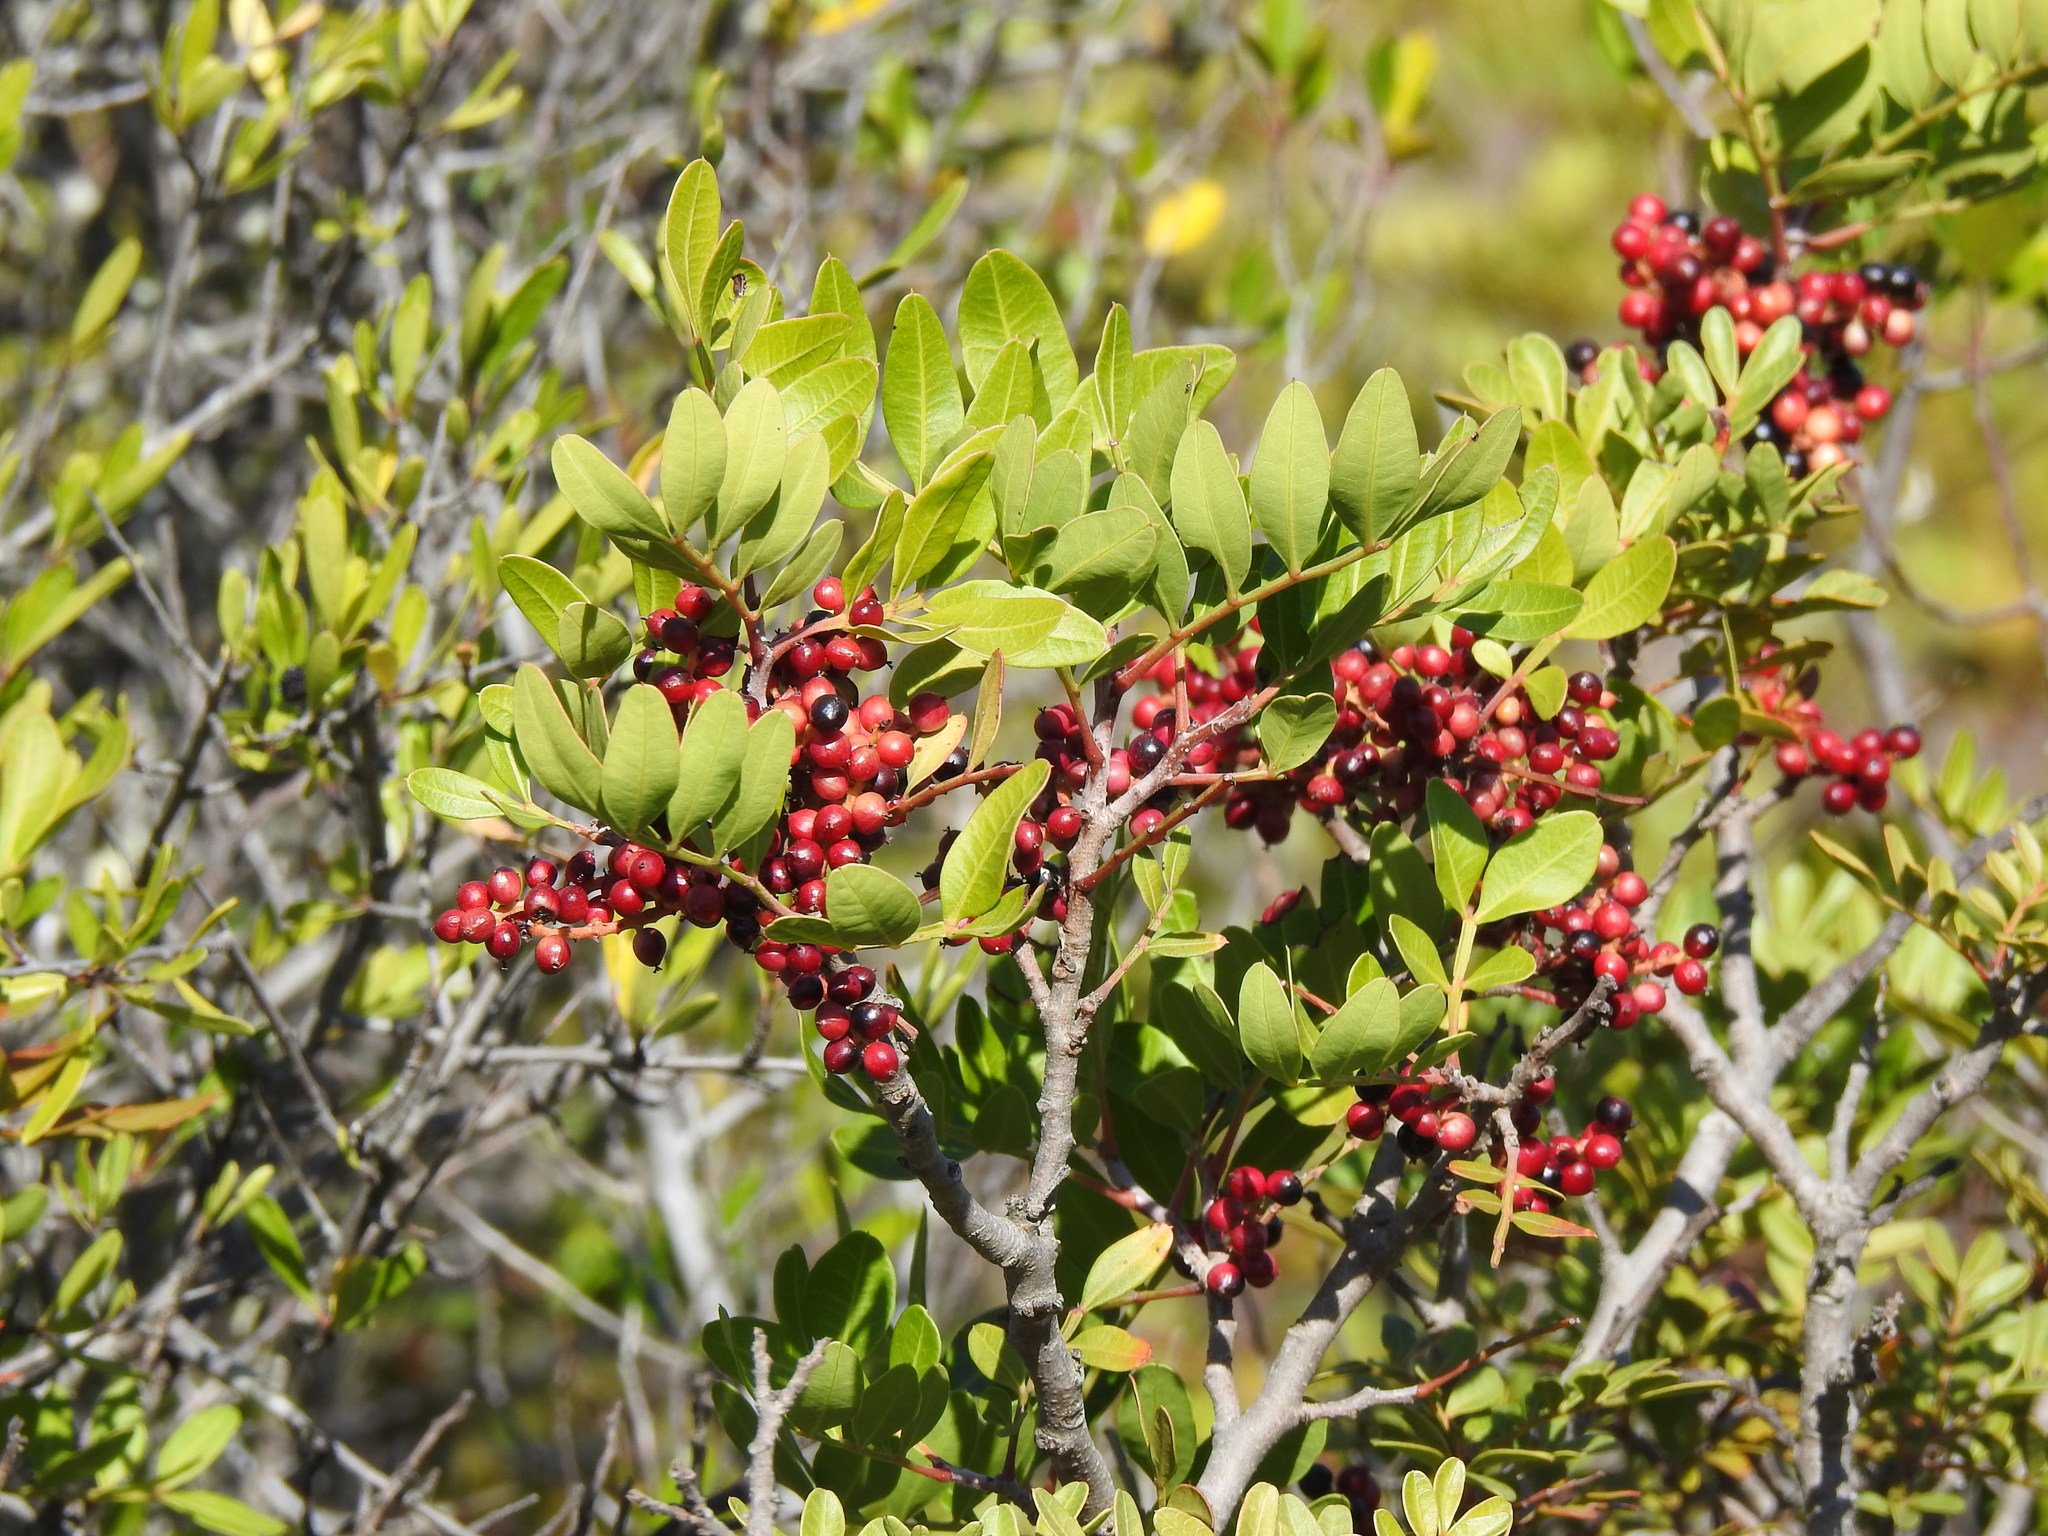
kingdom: Plantae
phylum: Tracheophyta
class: Magnoliopsida
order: Sapindales
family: Anacardiaceae
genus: Pistacia
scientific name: Pistacia lentiscus
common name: Lentisk
